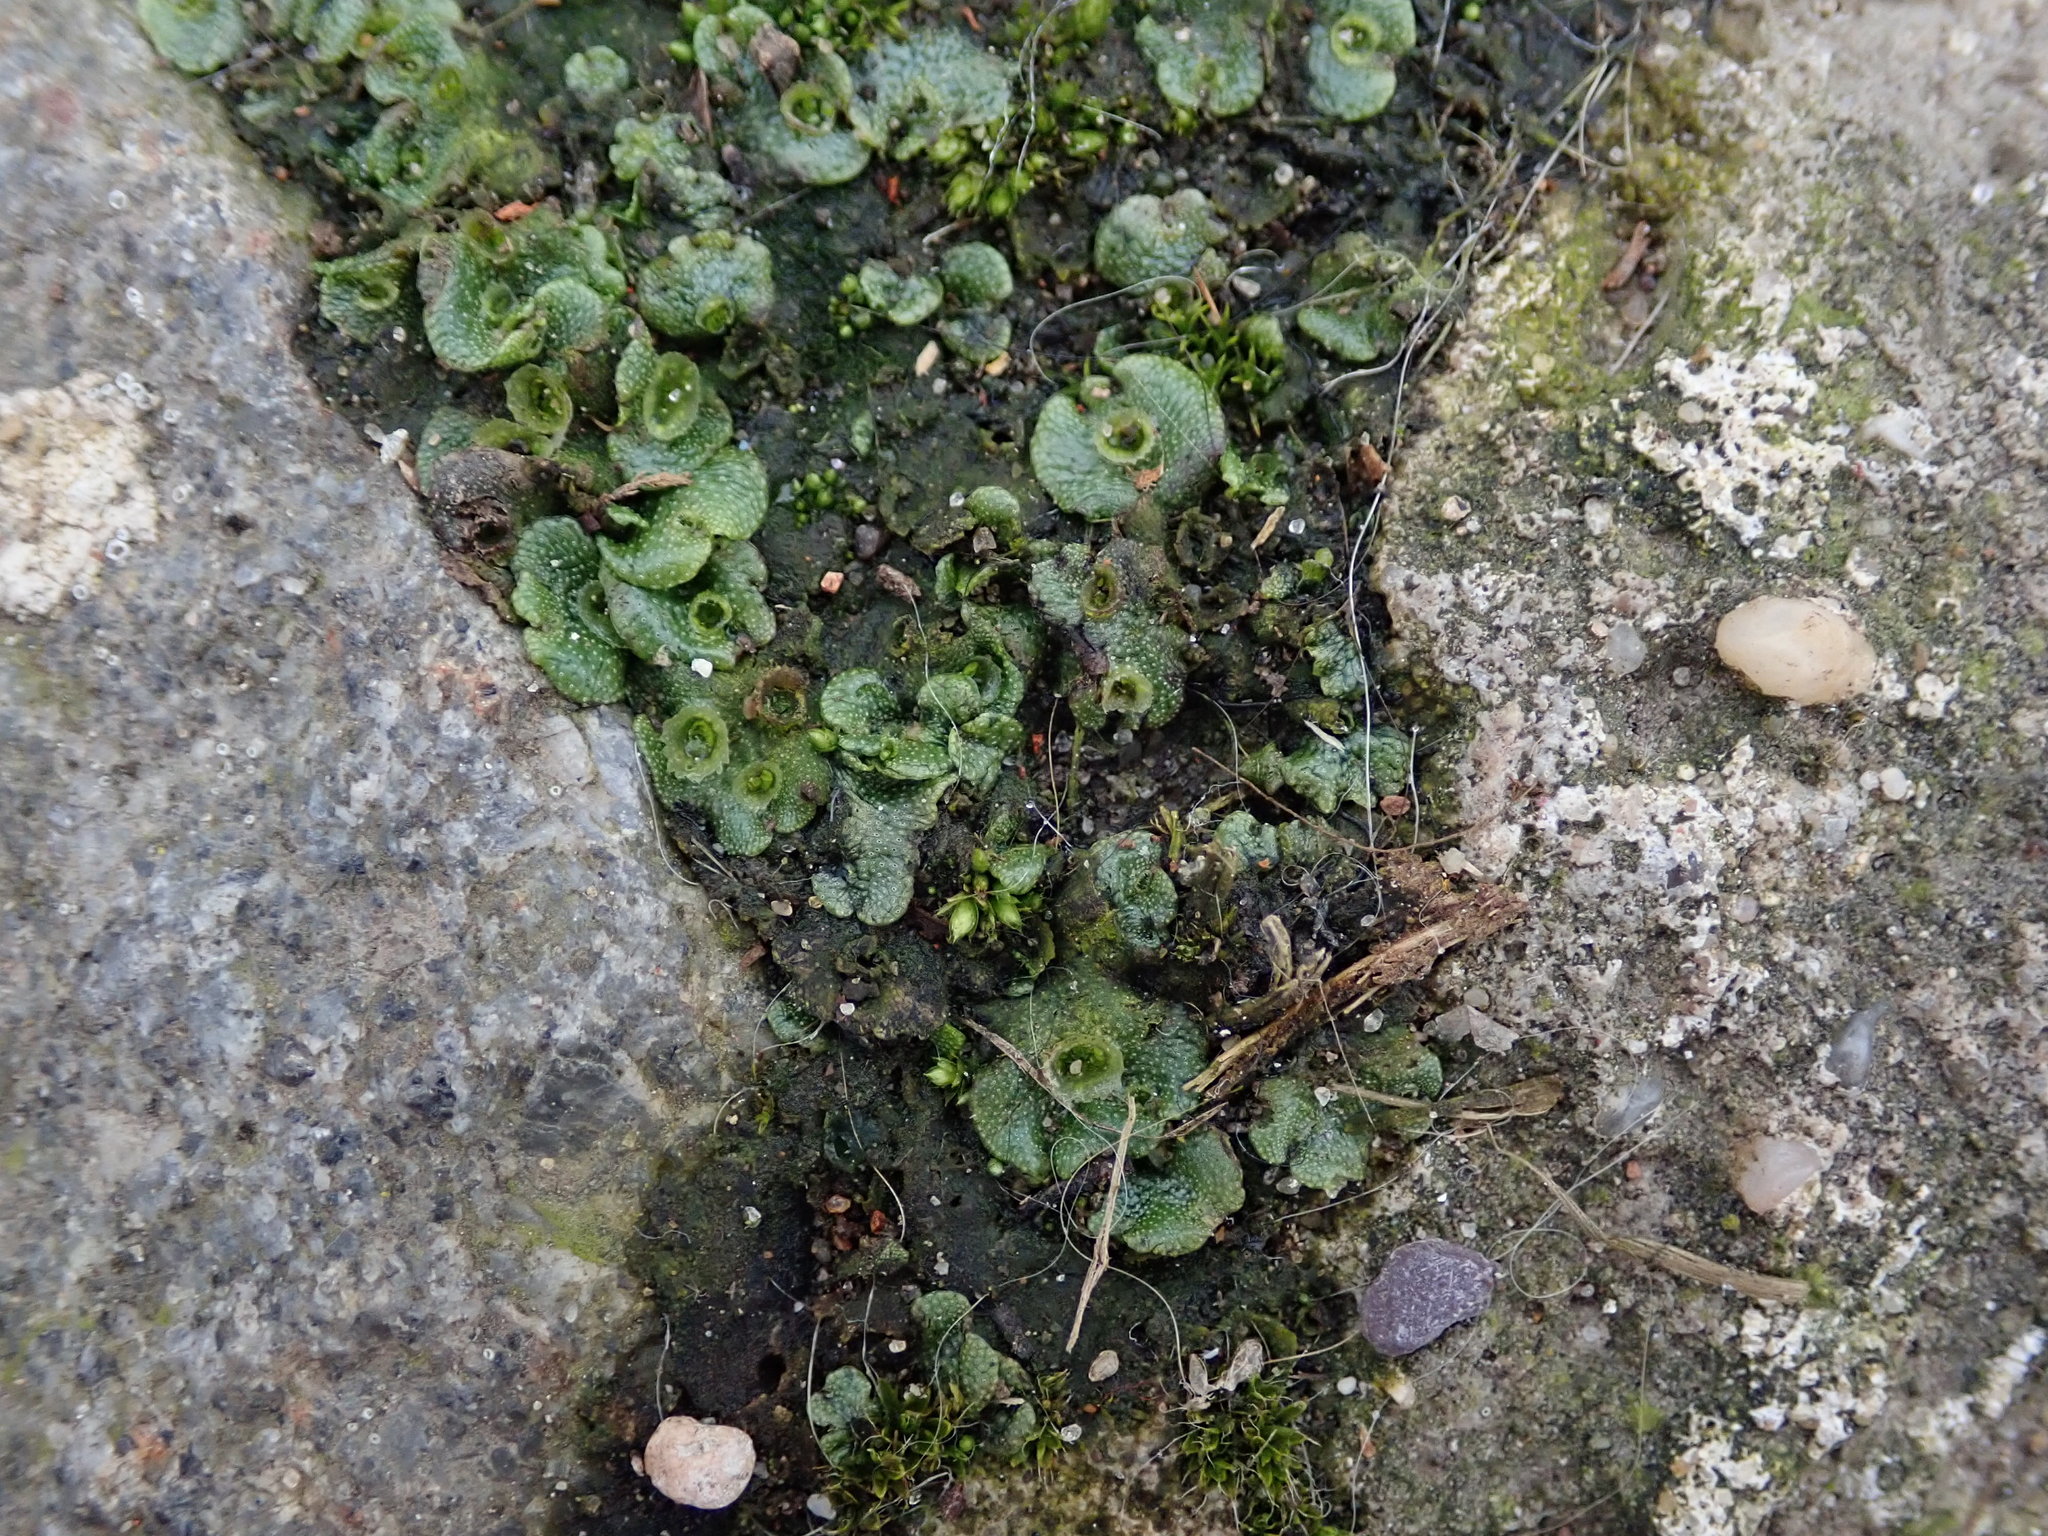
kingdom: Plantae
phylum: Marchantiophyta
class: Marchantiopsida
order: Marchantiales
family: Marchantiaceae
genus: Marchantia
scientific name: Marchantia polymorpha
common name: Common liverwort
